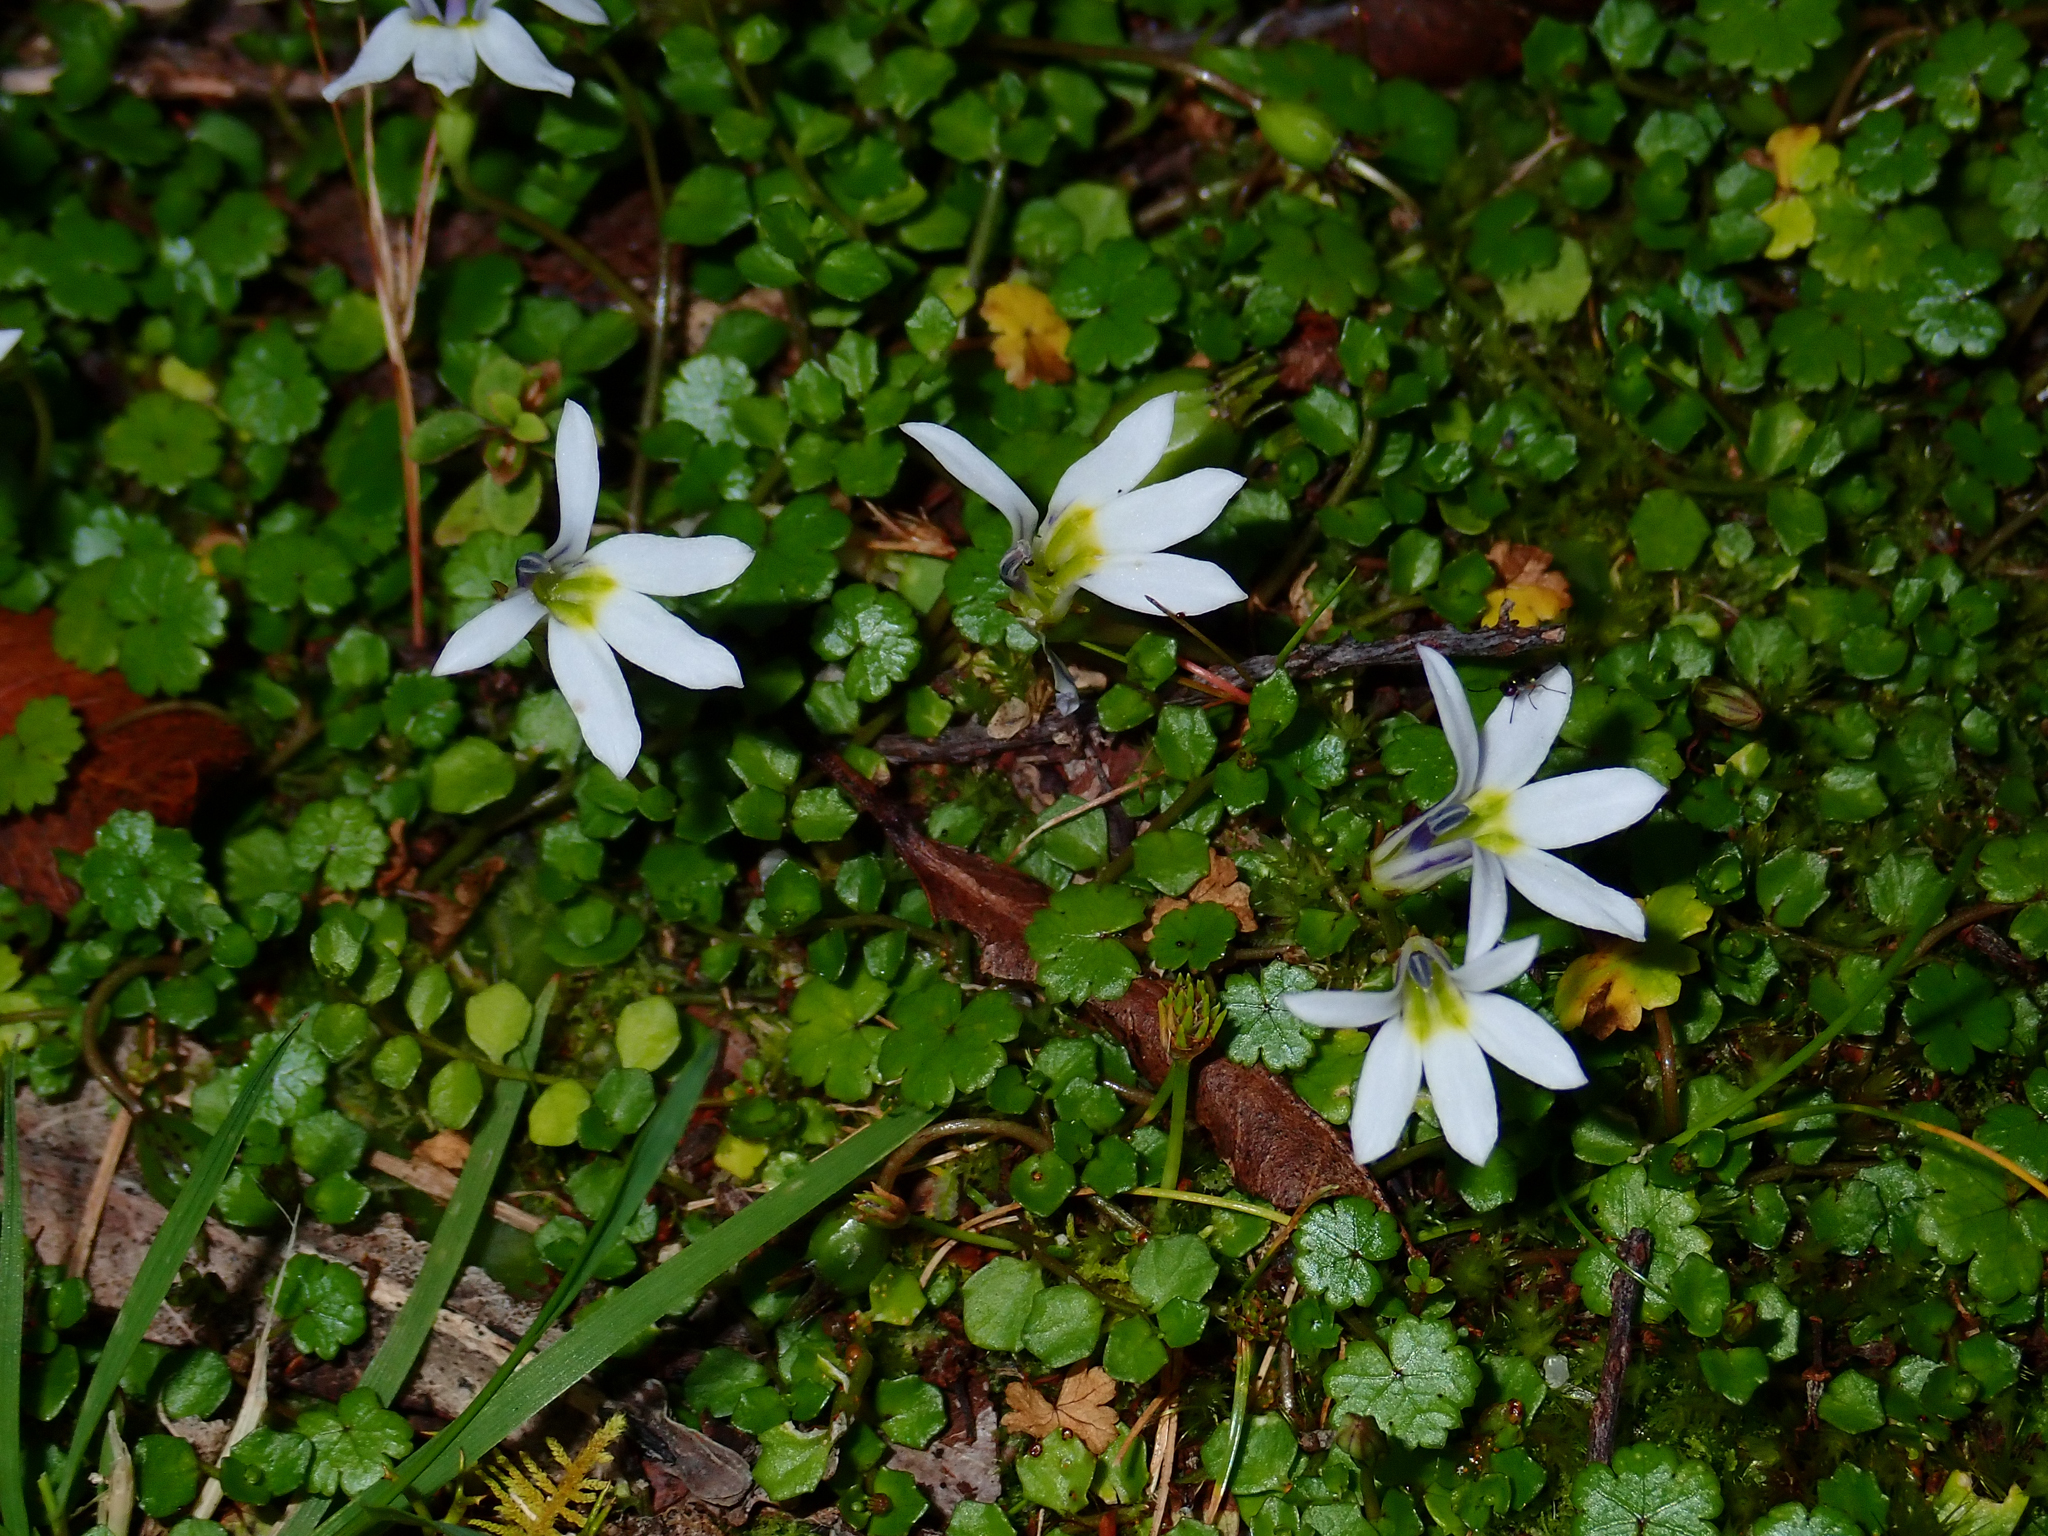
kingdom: Plantae
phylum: Tracheophyta
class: Magnoliopsida
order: Asterales
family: Campanulaceae
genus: Lobelia
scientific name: Lobelia angulata
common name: Lawn lobelia
